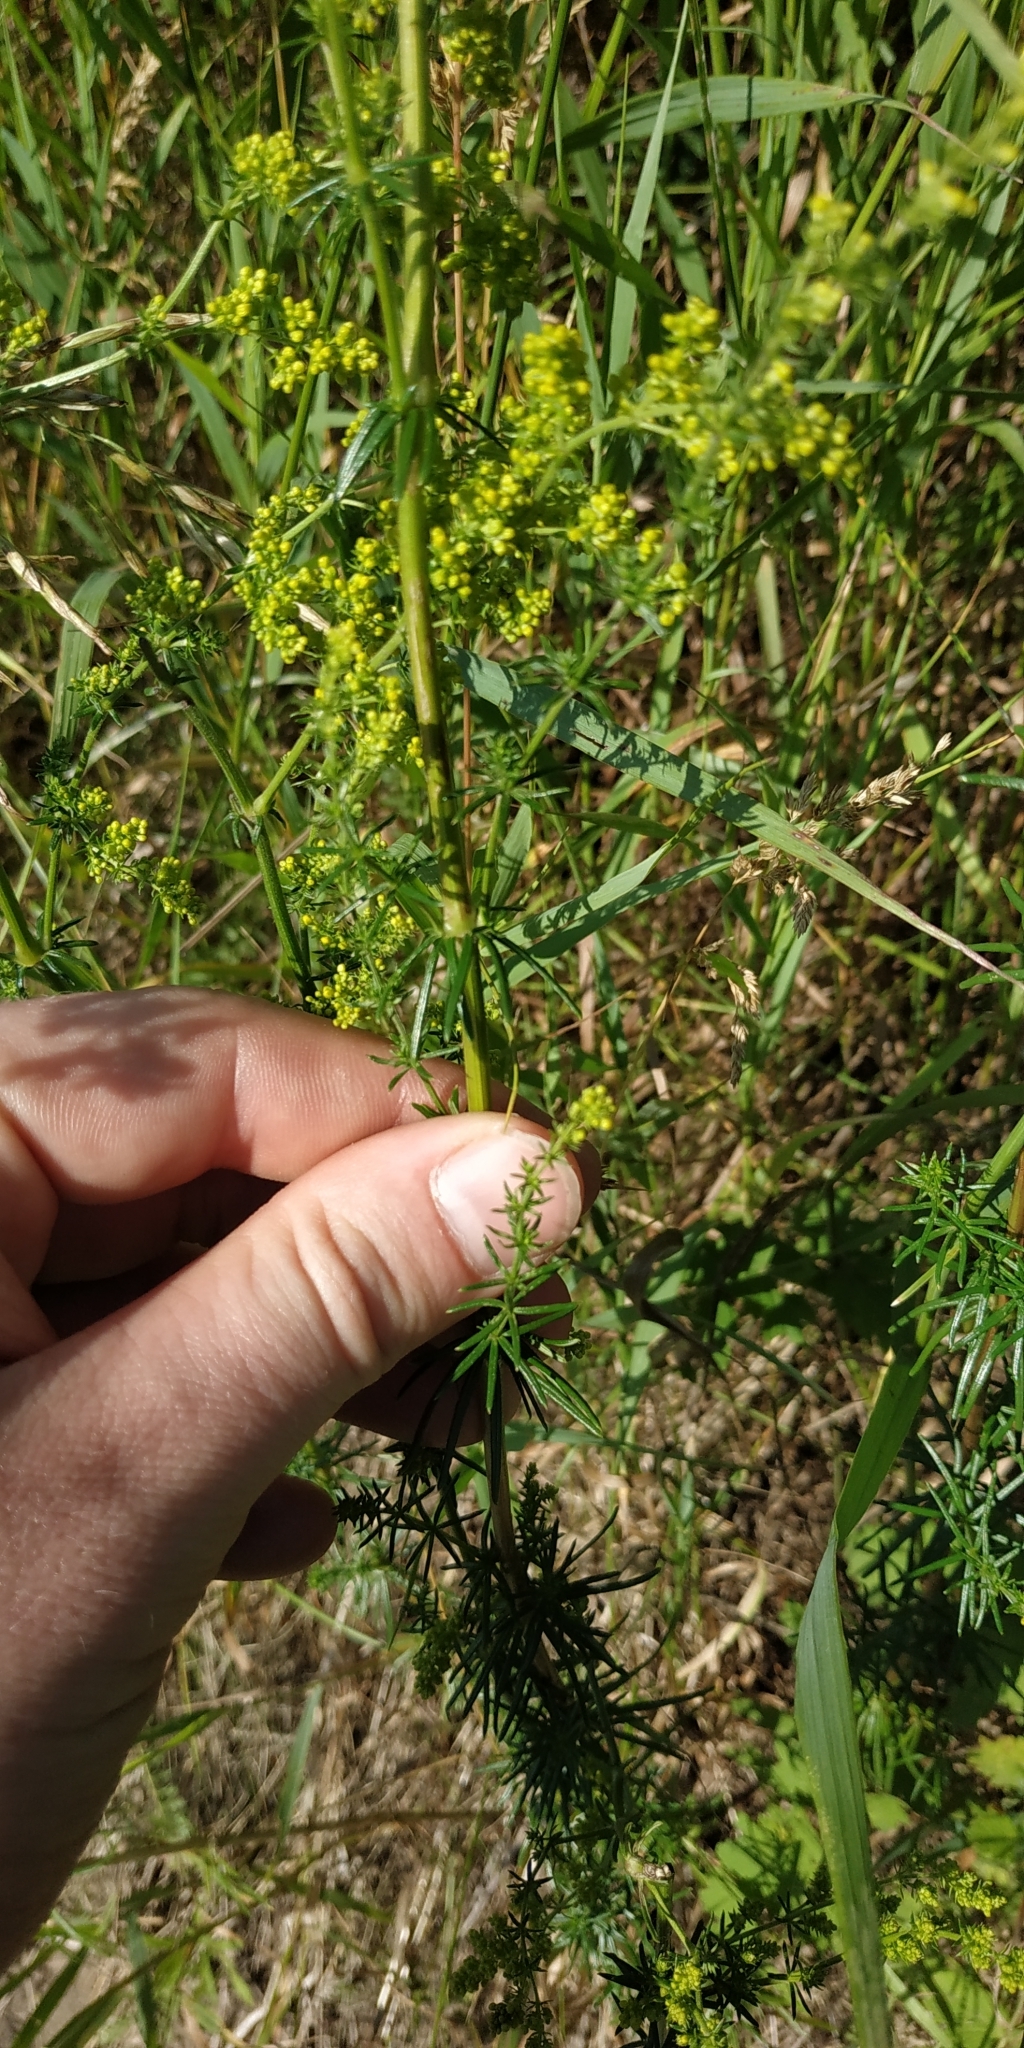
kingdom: Plantae
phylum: Tracheophyta
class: Magnoliopsida
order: Gentianales
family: Rubiaceae
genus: Galium
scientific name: Galium verum
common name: Lady's bedstraw
